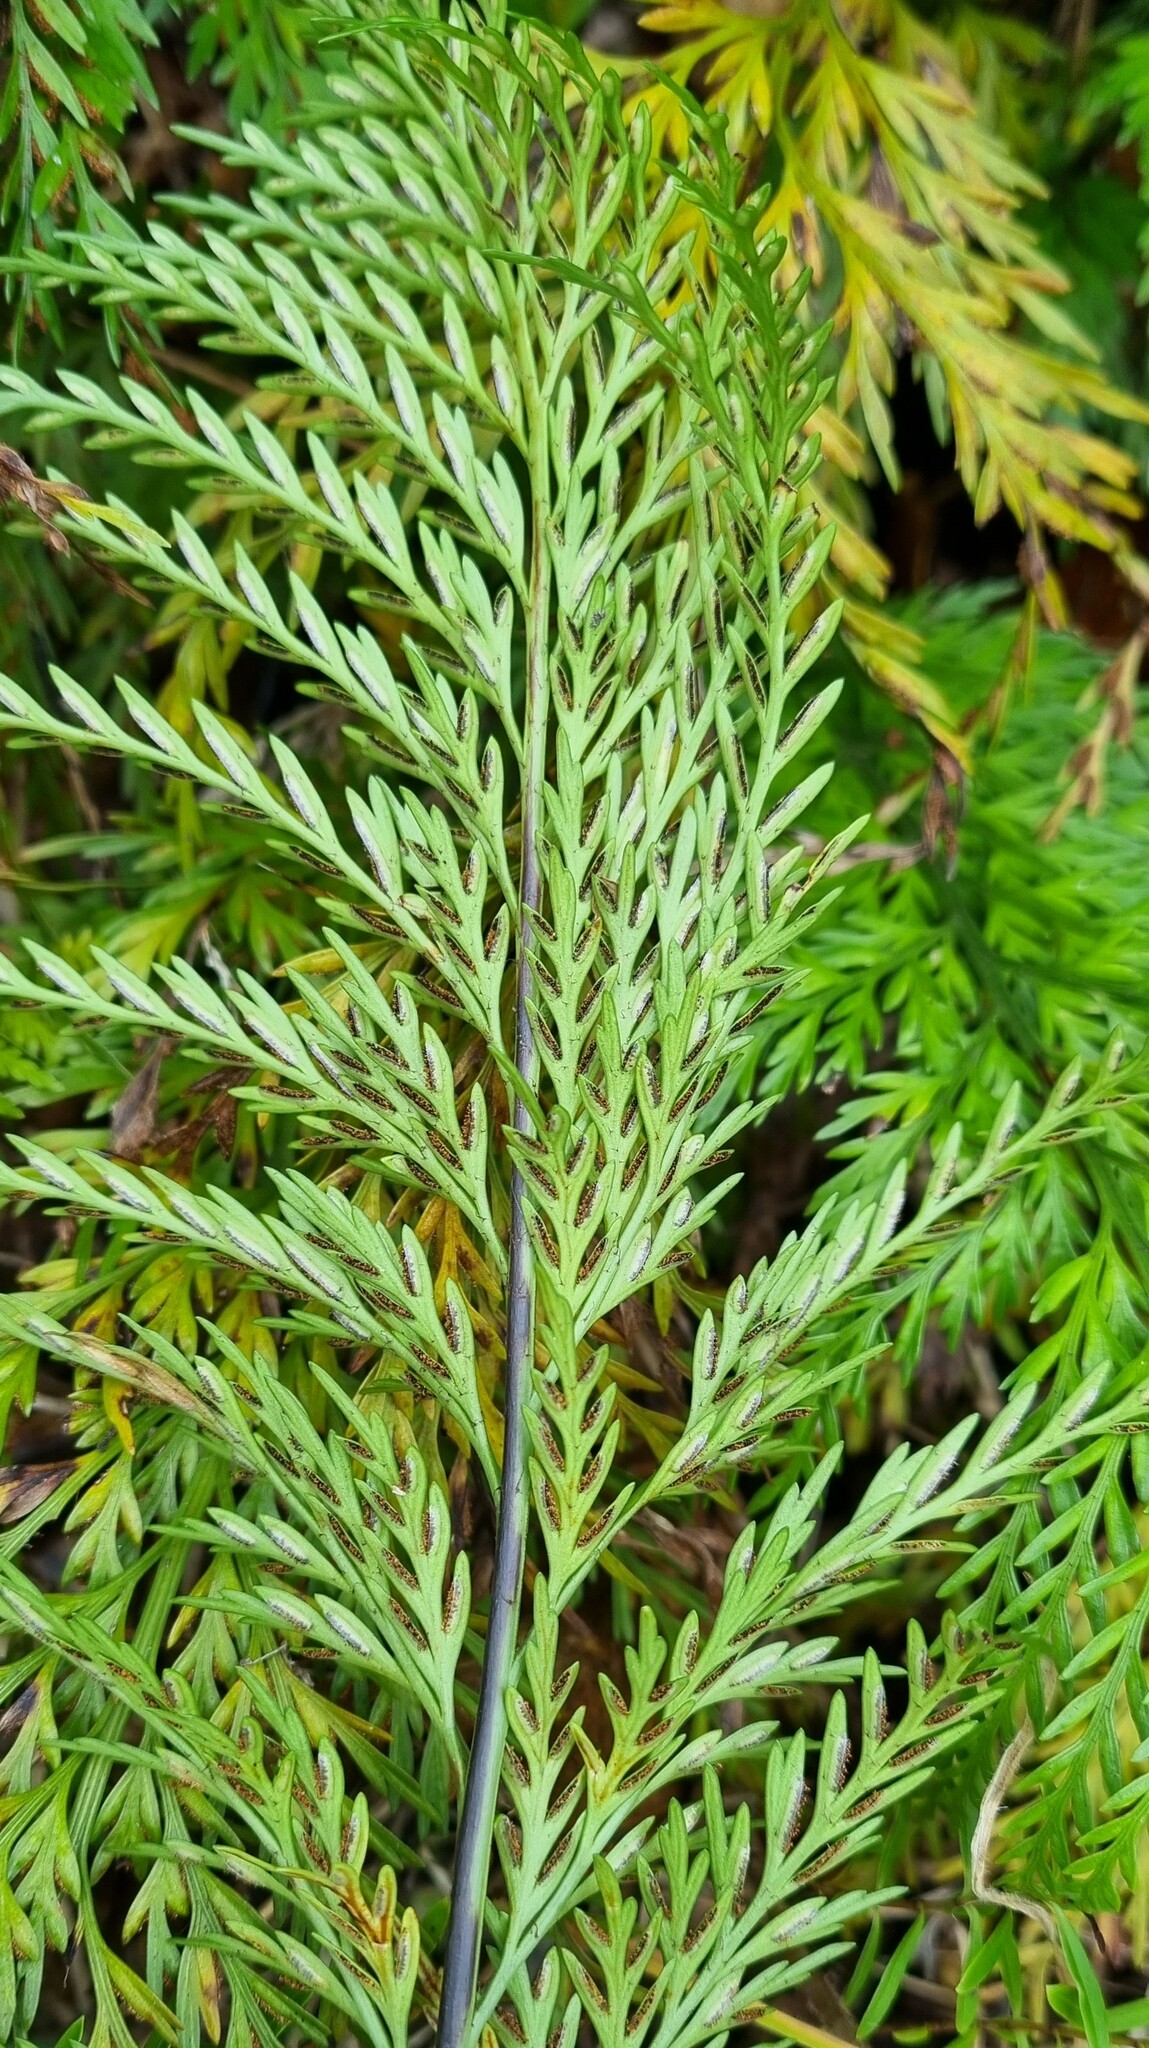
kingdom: Plantae
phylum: Tracheophyta
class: Polypodiopsida
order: Polypodiales
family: Aspleniaceae
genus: Asplenium
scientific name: Asplenium appendiculatum
